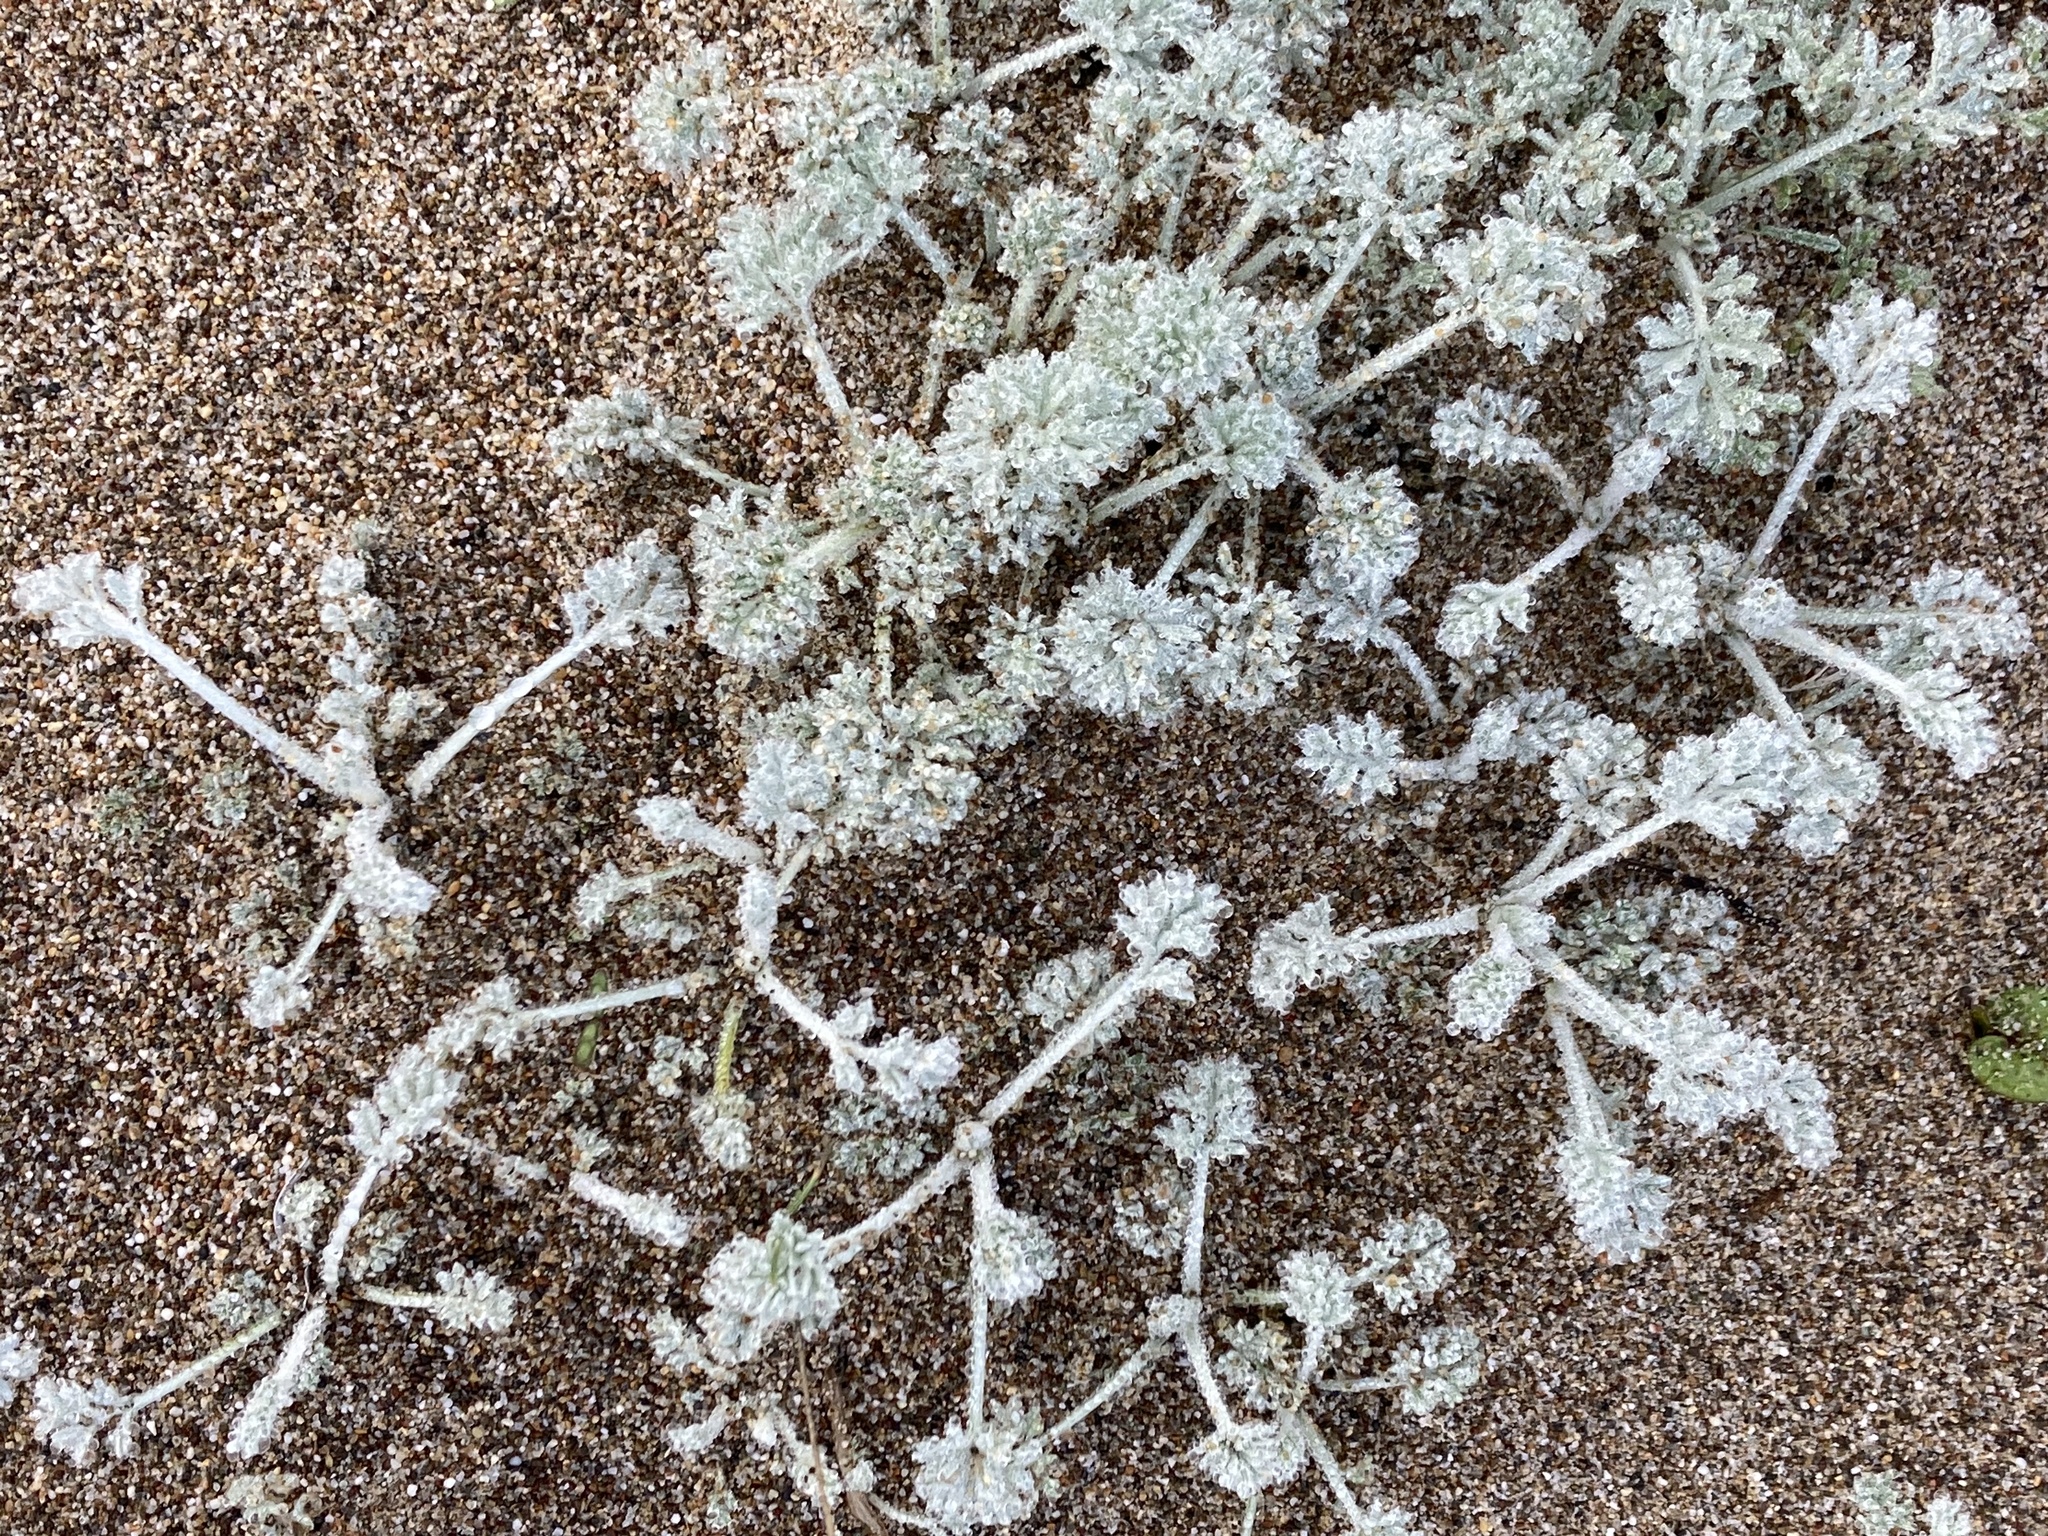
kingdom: Plantae
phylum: Tracheophyta
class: Magnoliopsida
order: Asterales
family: Asteraceae
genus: Artemisia
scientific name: Artemisia pycnocephala
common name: Coastal sagewort
